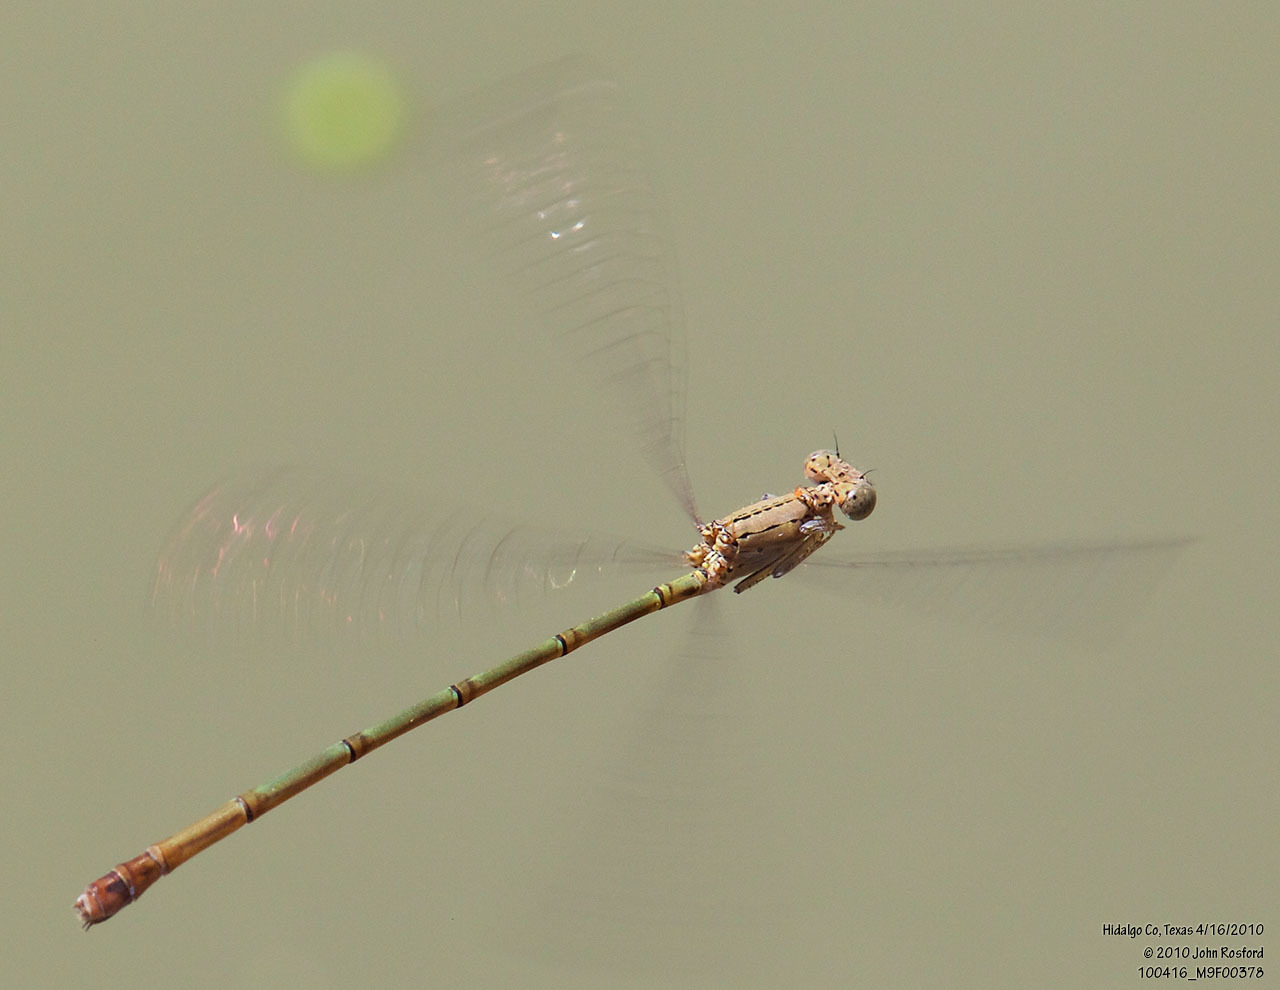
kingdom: Animalia
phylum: Arthropoda
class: Insecta
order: Odonata
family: Coenagrionidae
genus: Neoneura
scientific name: Neoneura amelia
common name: Amelia’s threadtail
